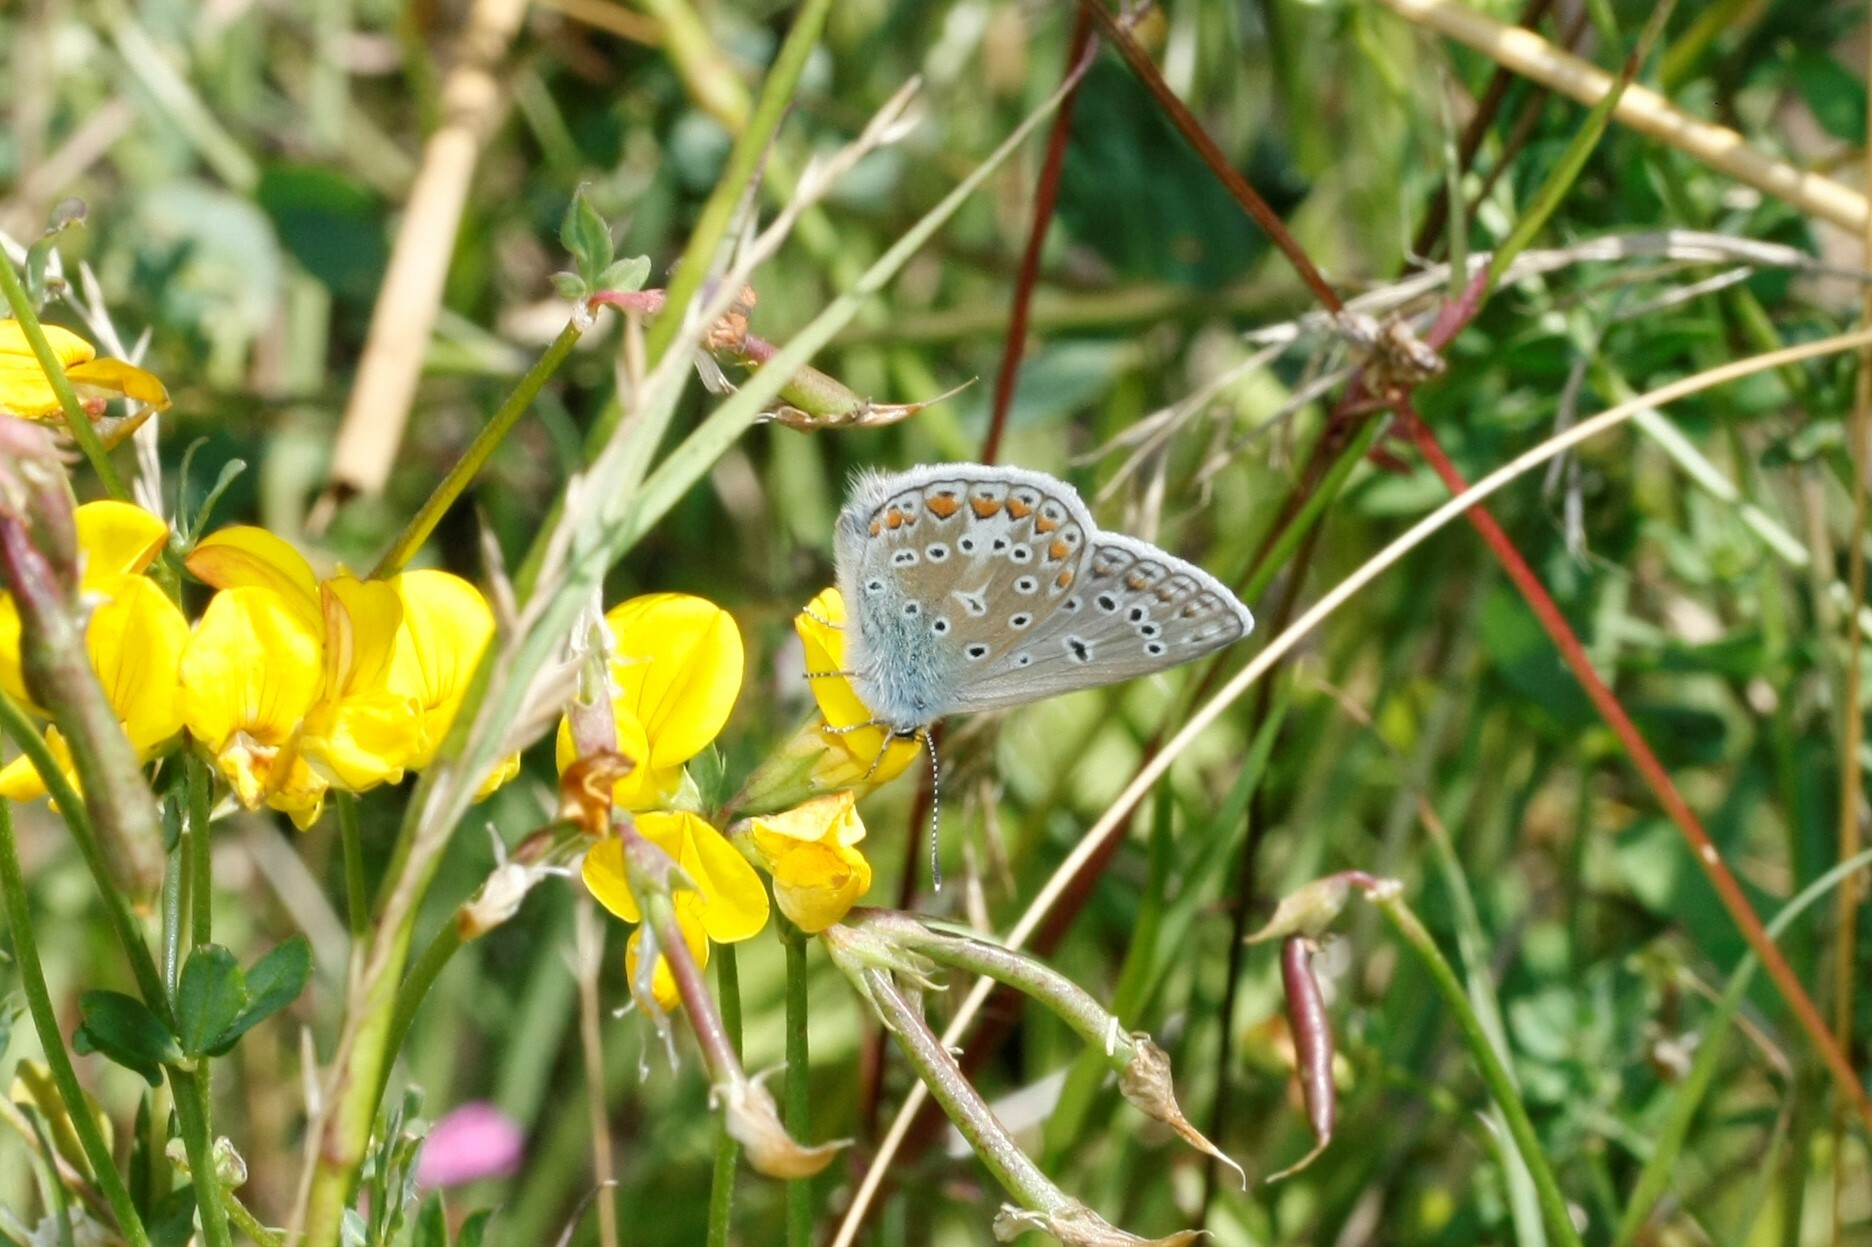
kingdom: Animalia
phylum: Arthropoda
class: Insecta
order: Lepidoptera
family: Lycaenidae
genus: Polyommatus
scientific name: Polyommatus icarus
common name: Common blue
